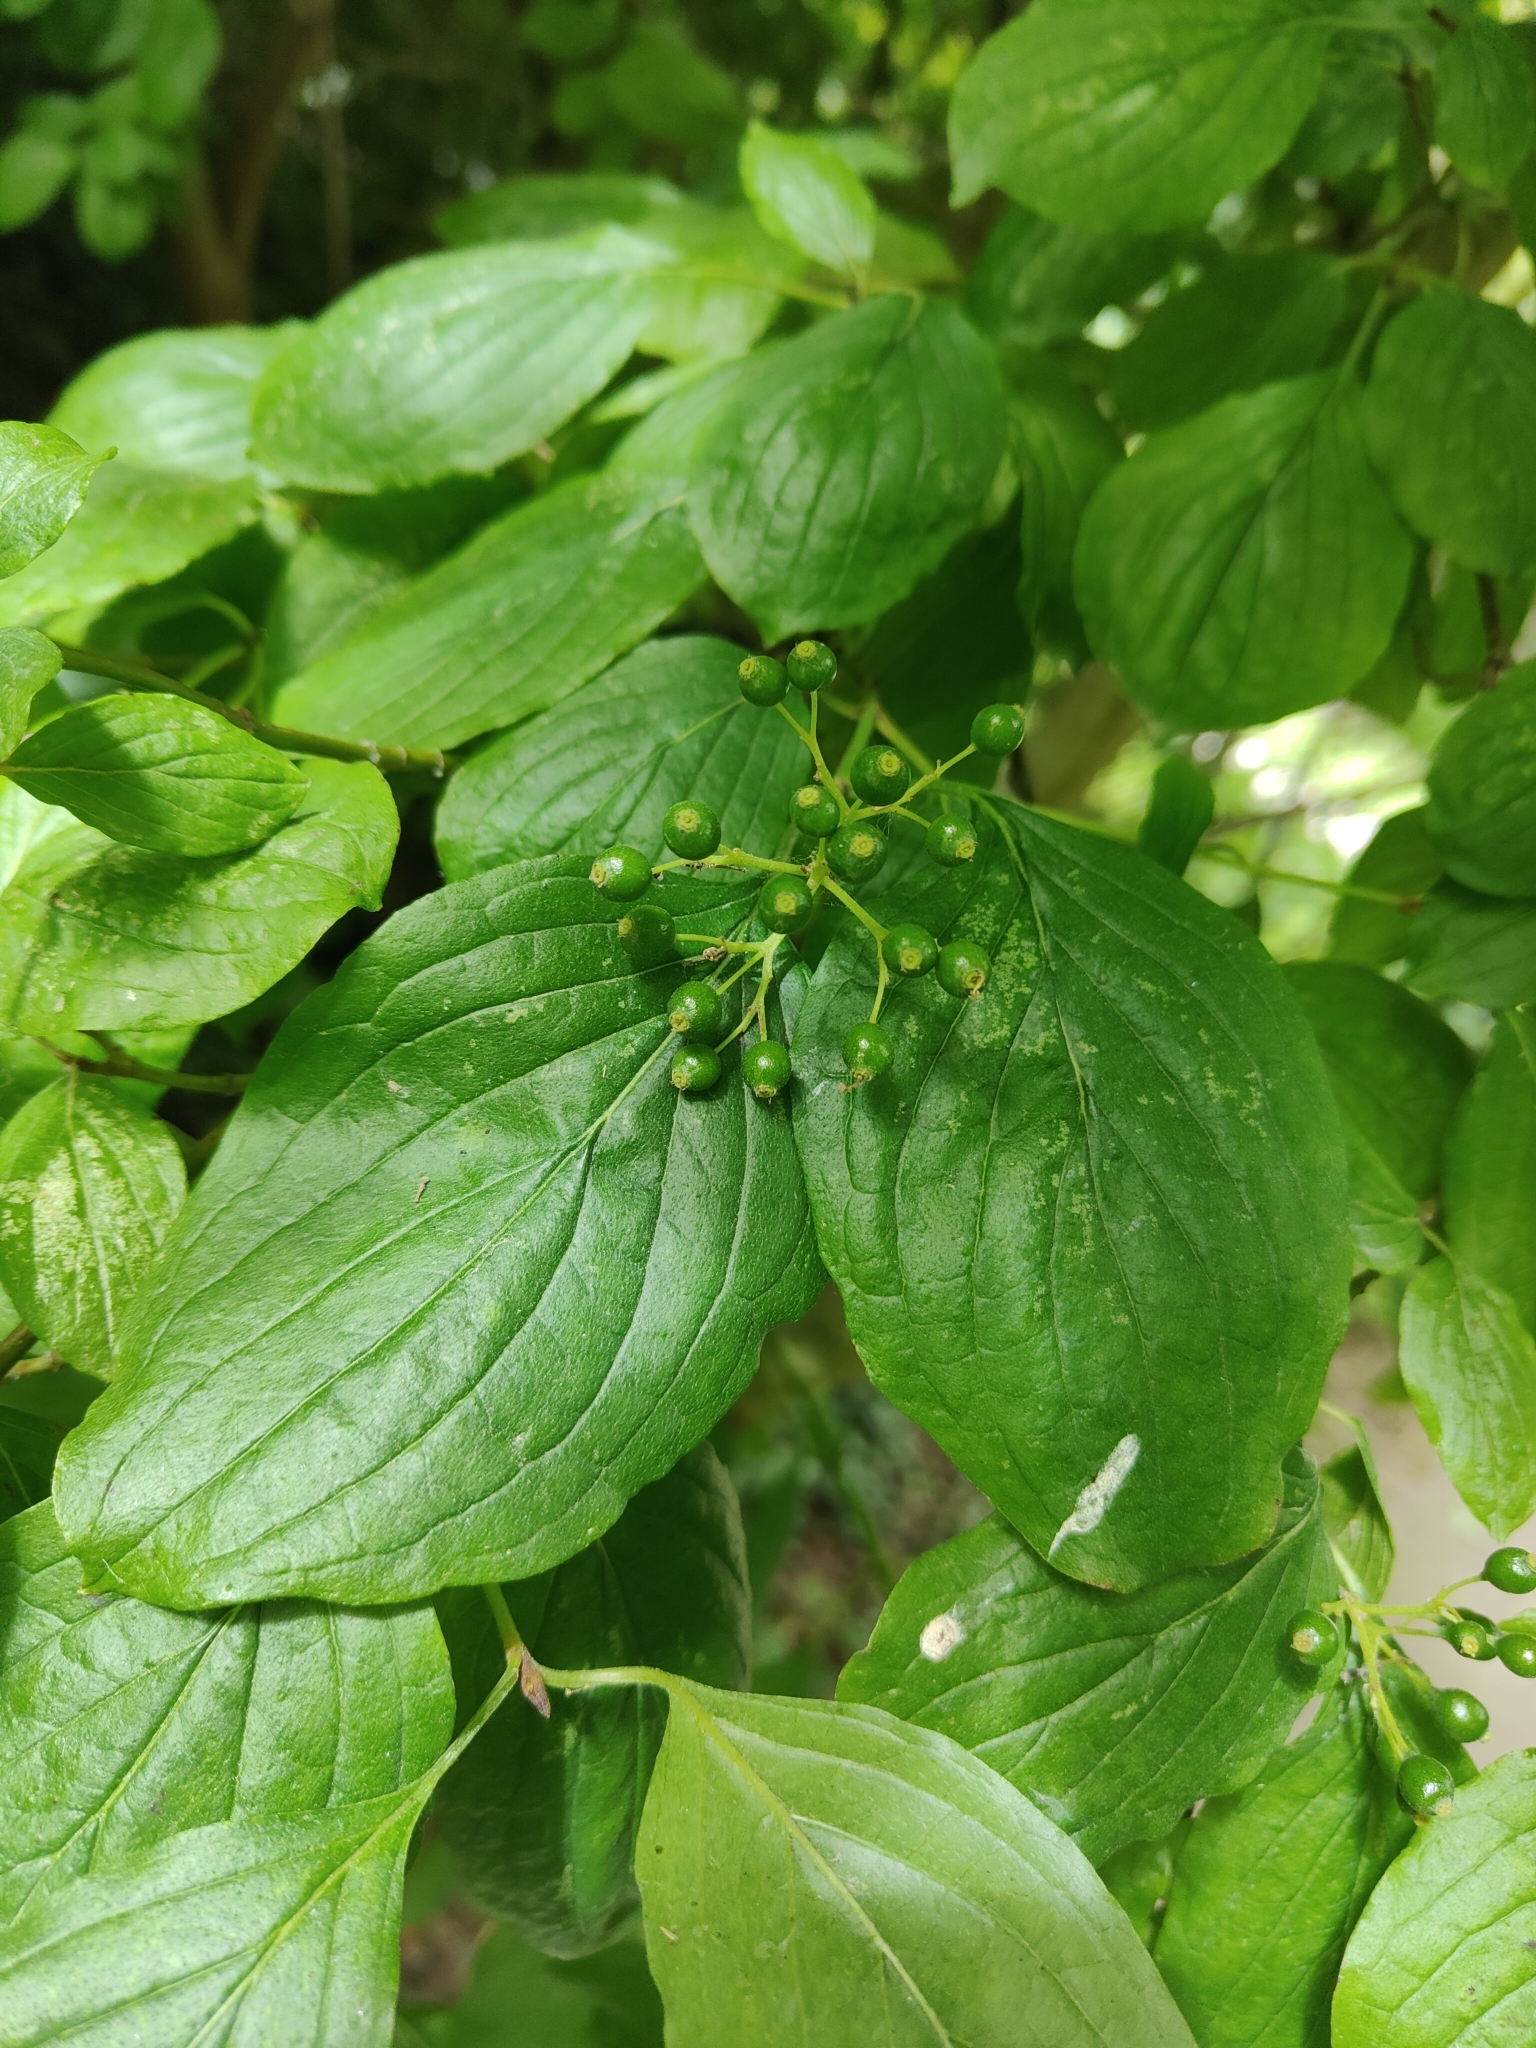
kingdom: Plantae
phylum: Tracheophyta
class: Magnoliopsida
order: Cornales
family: Cornaceae
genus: Cornus
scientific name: Cornus sanguinea
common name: Dogwood
